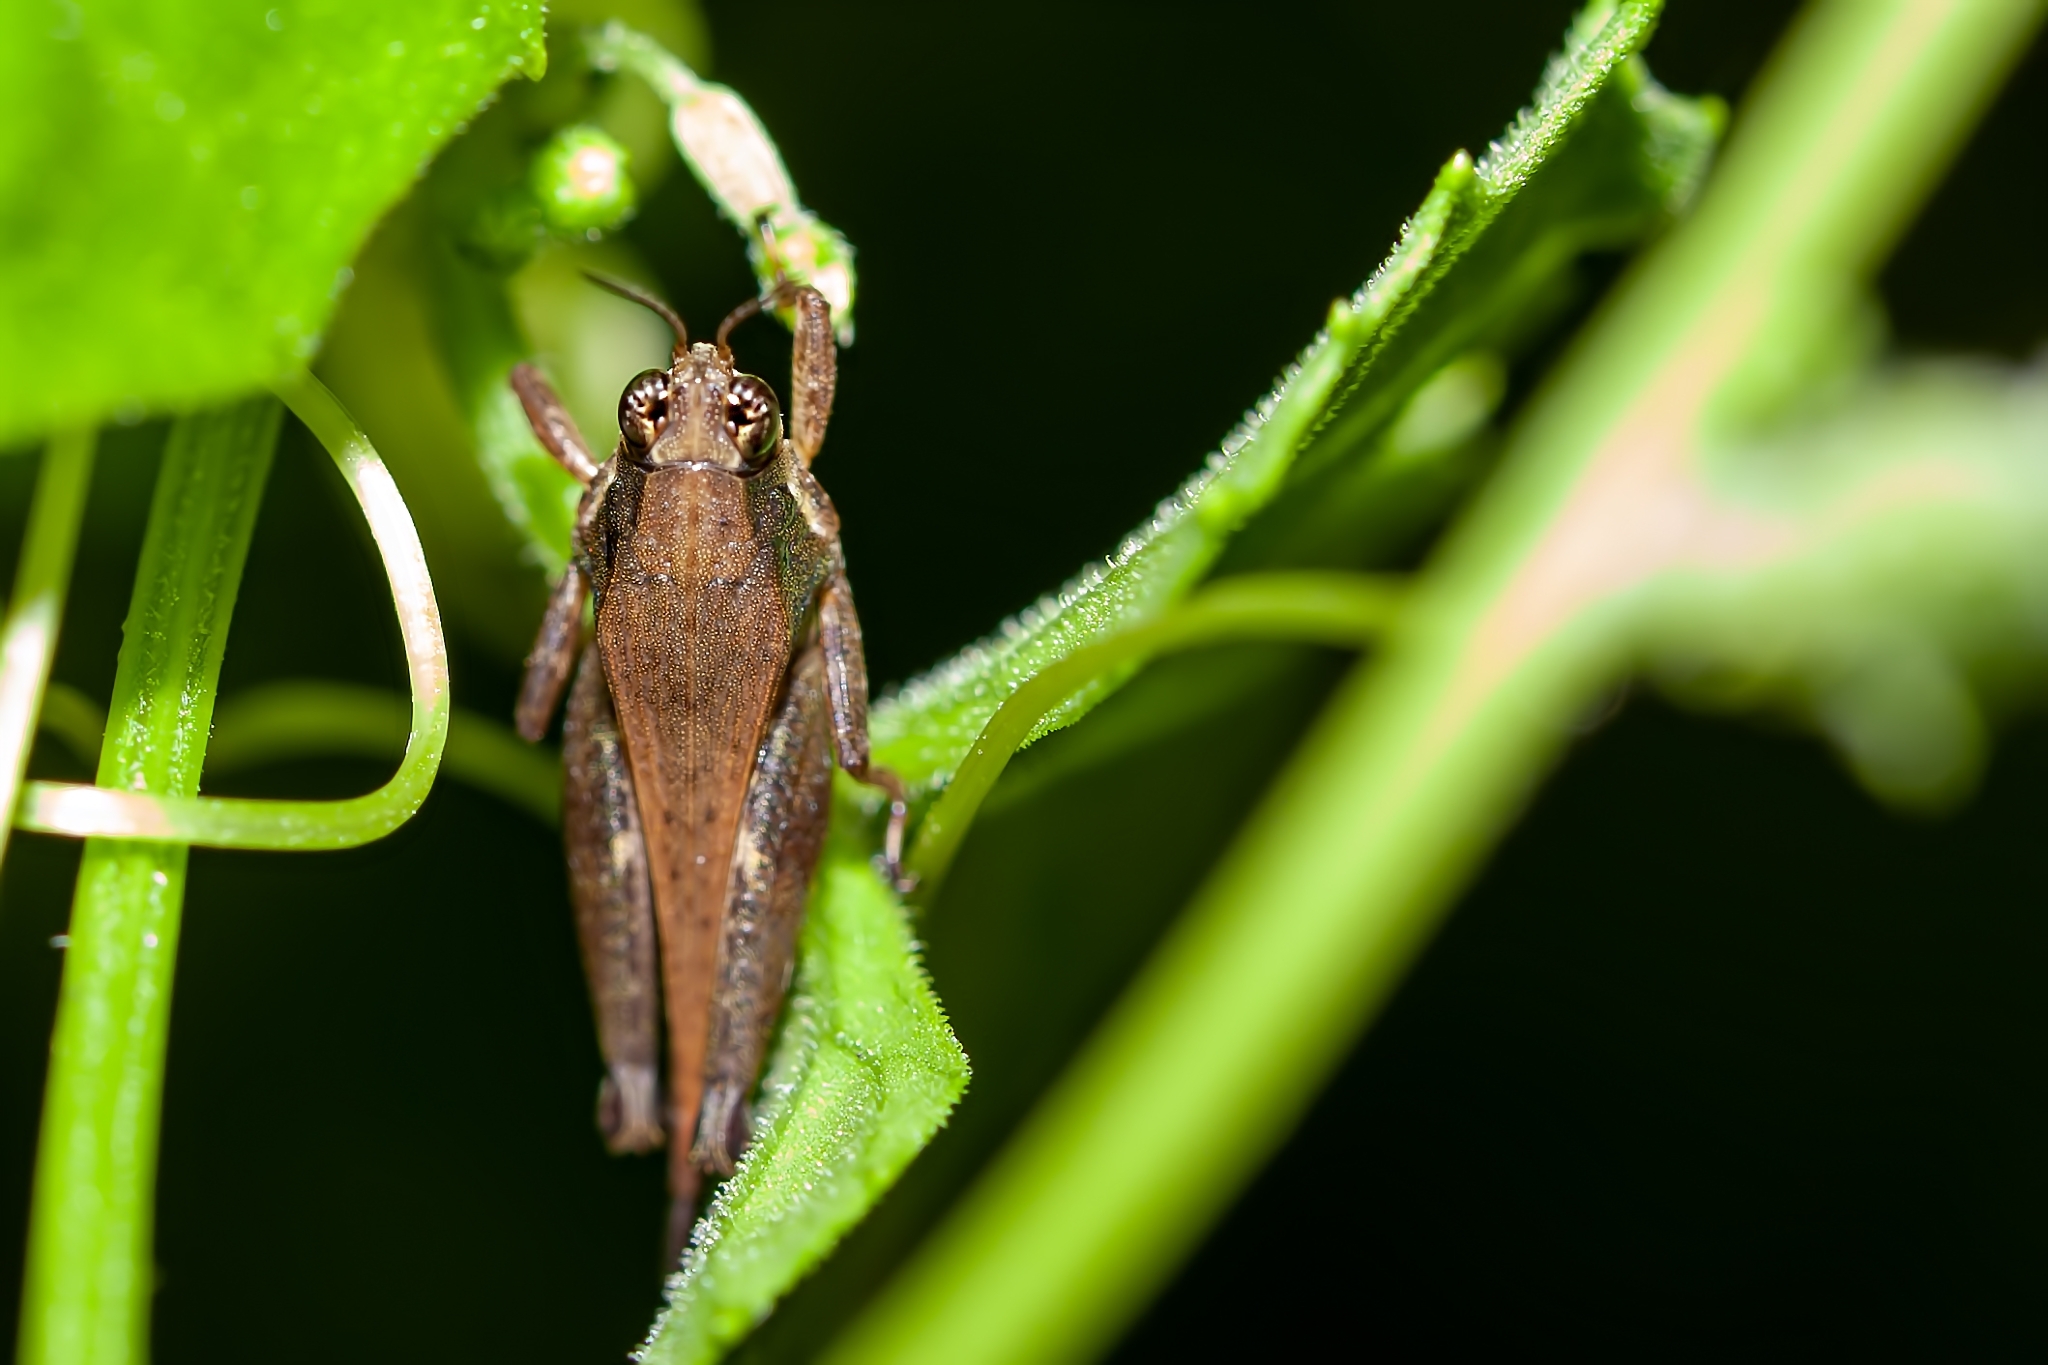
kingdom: Animalia
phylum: Arthropoda
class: Insecta
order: Orthoptera
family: Tetrigidae
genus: Tettigidea
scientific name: Tettigidea laterale
